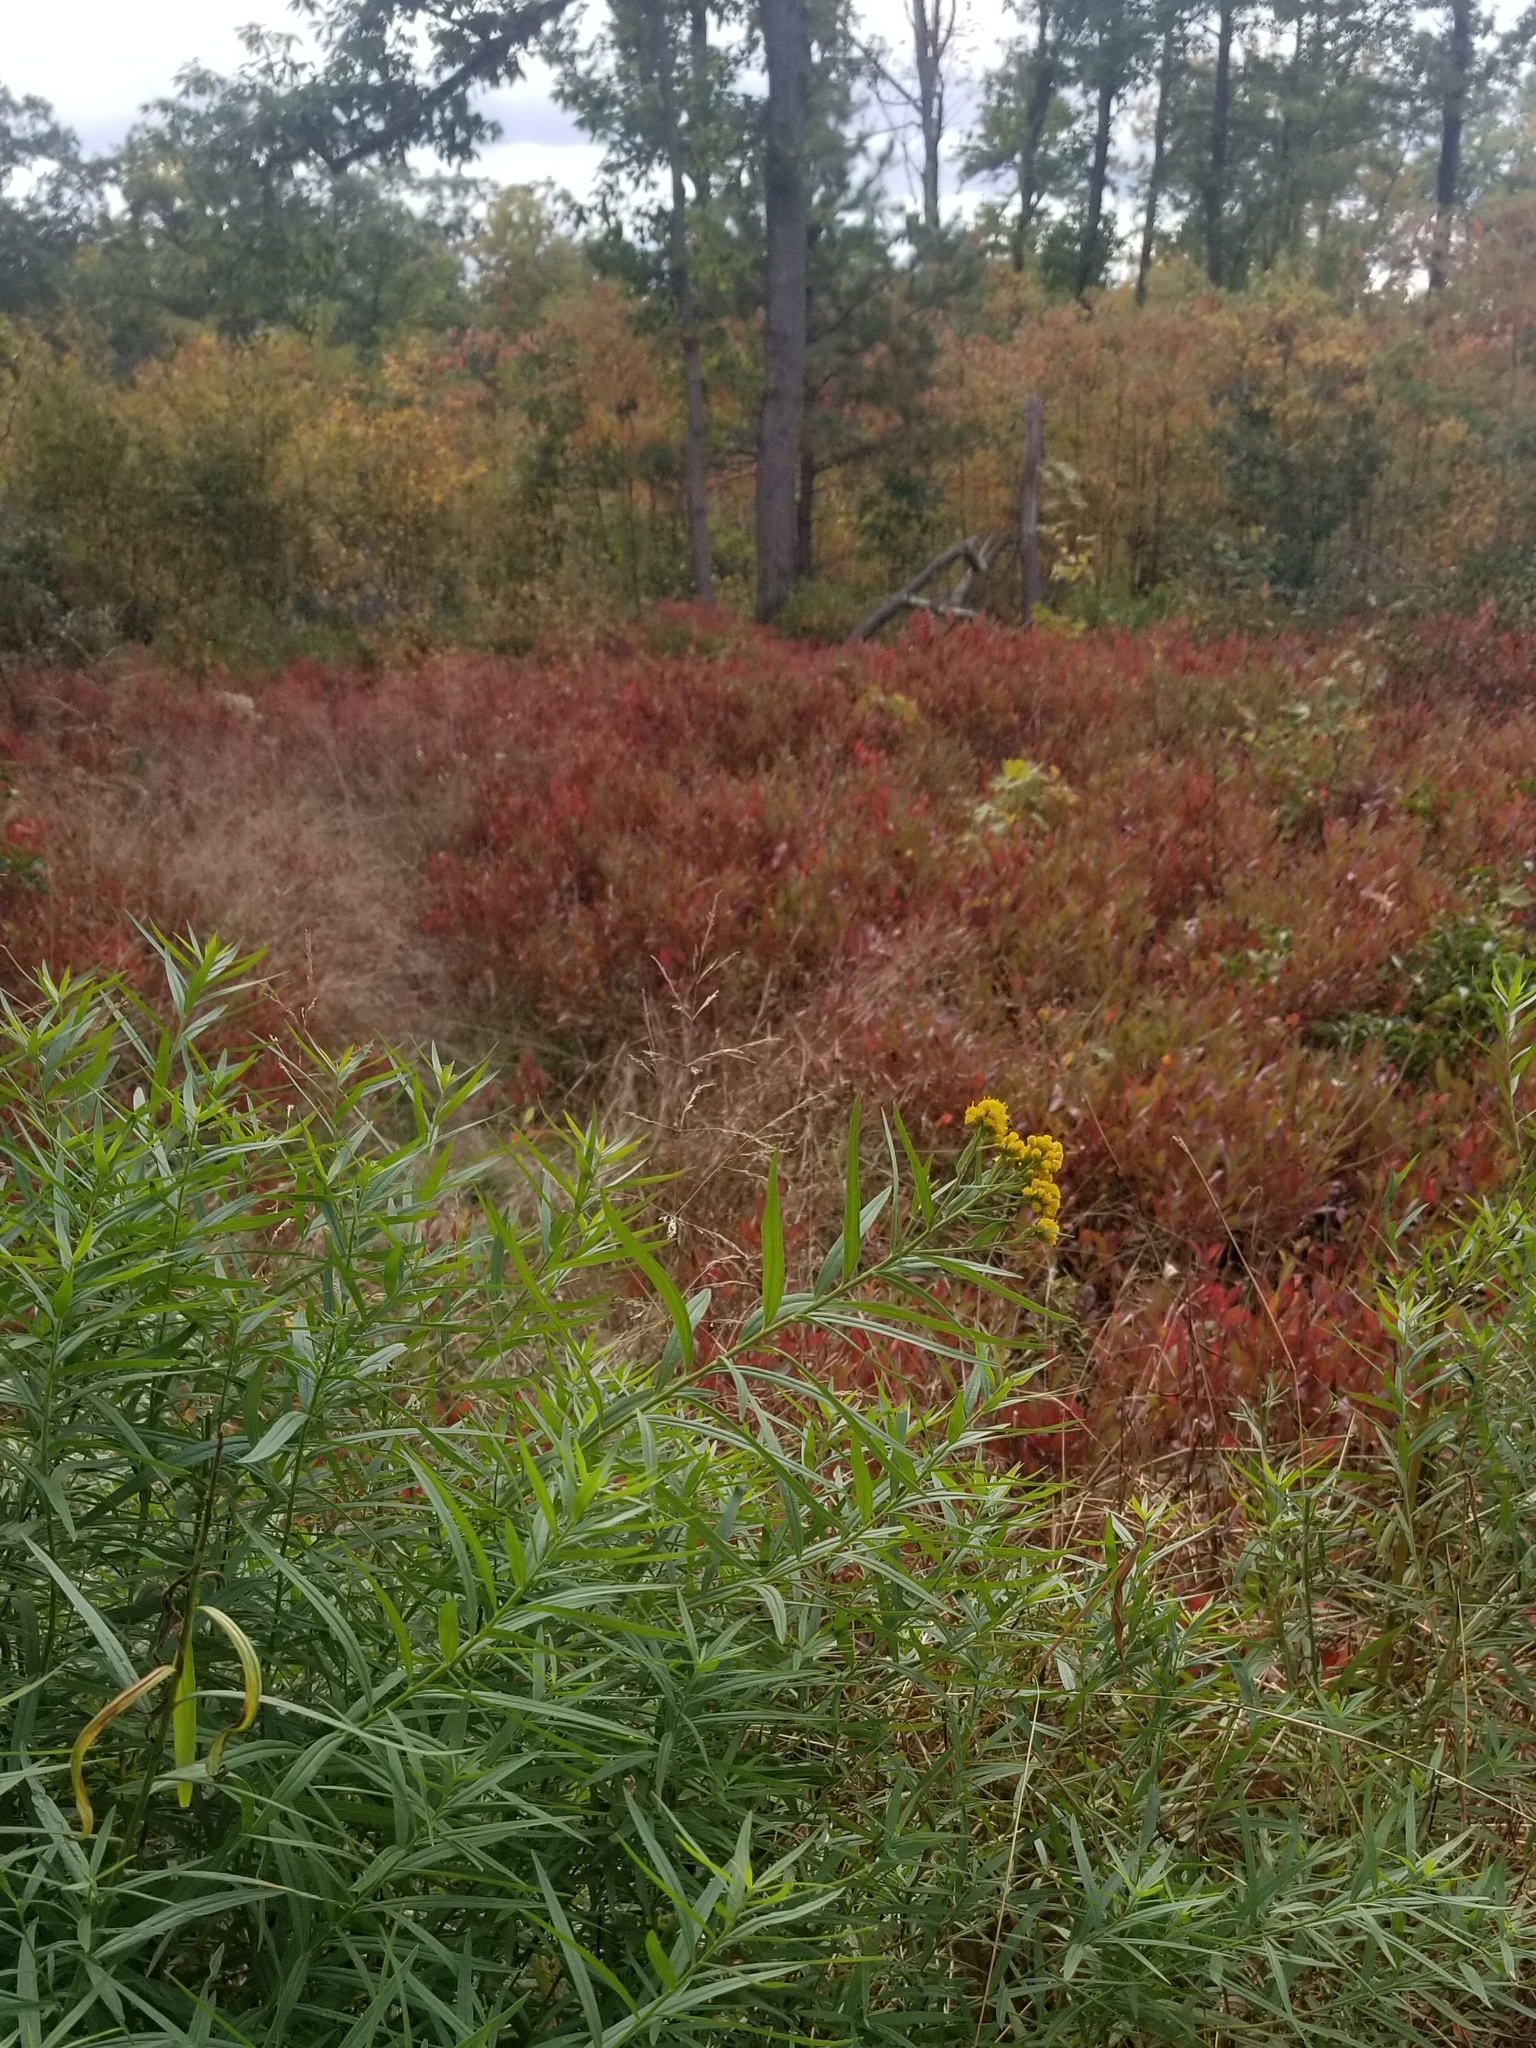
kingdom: Plantae
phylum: Tracheophyta
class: Magnoliopsida
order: Asterales
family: Asteraceae
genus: Euthamia
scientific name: Euthamia graminifolia
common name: Common goldentop
